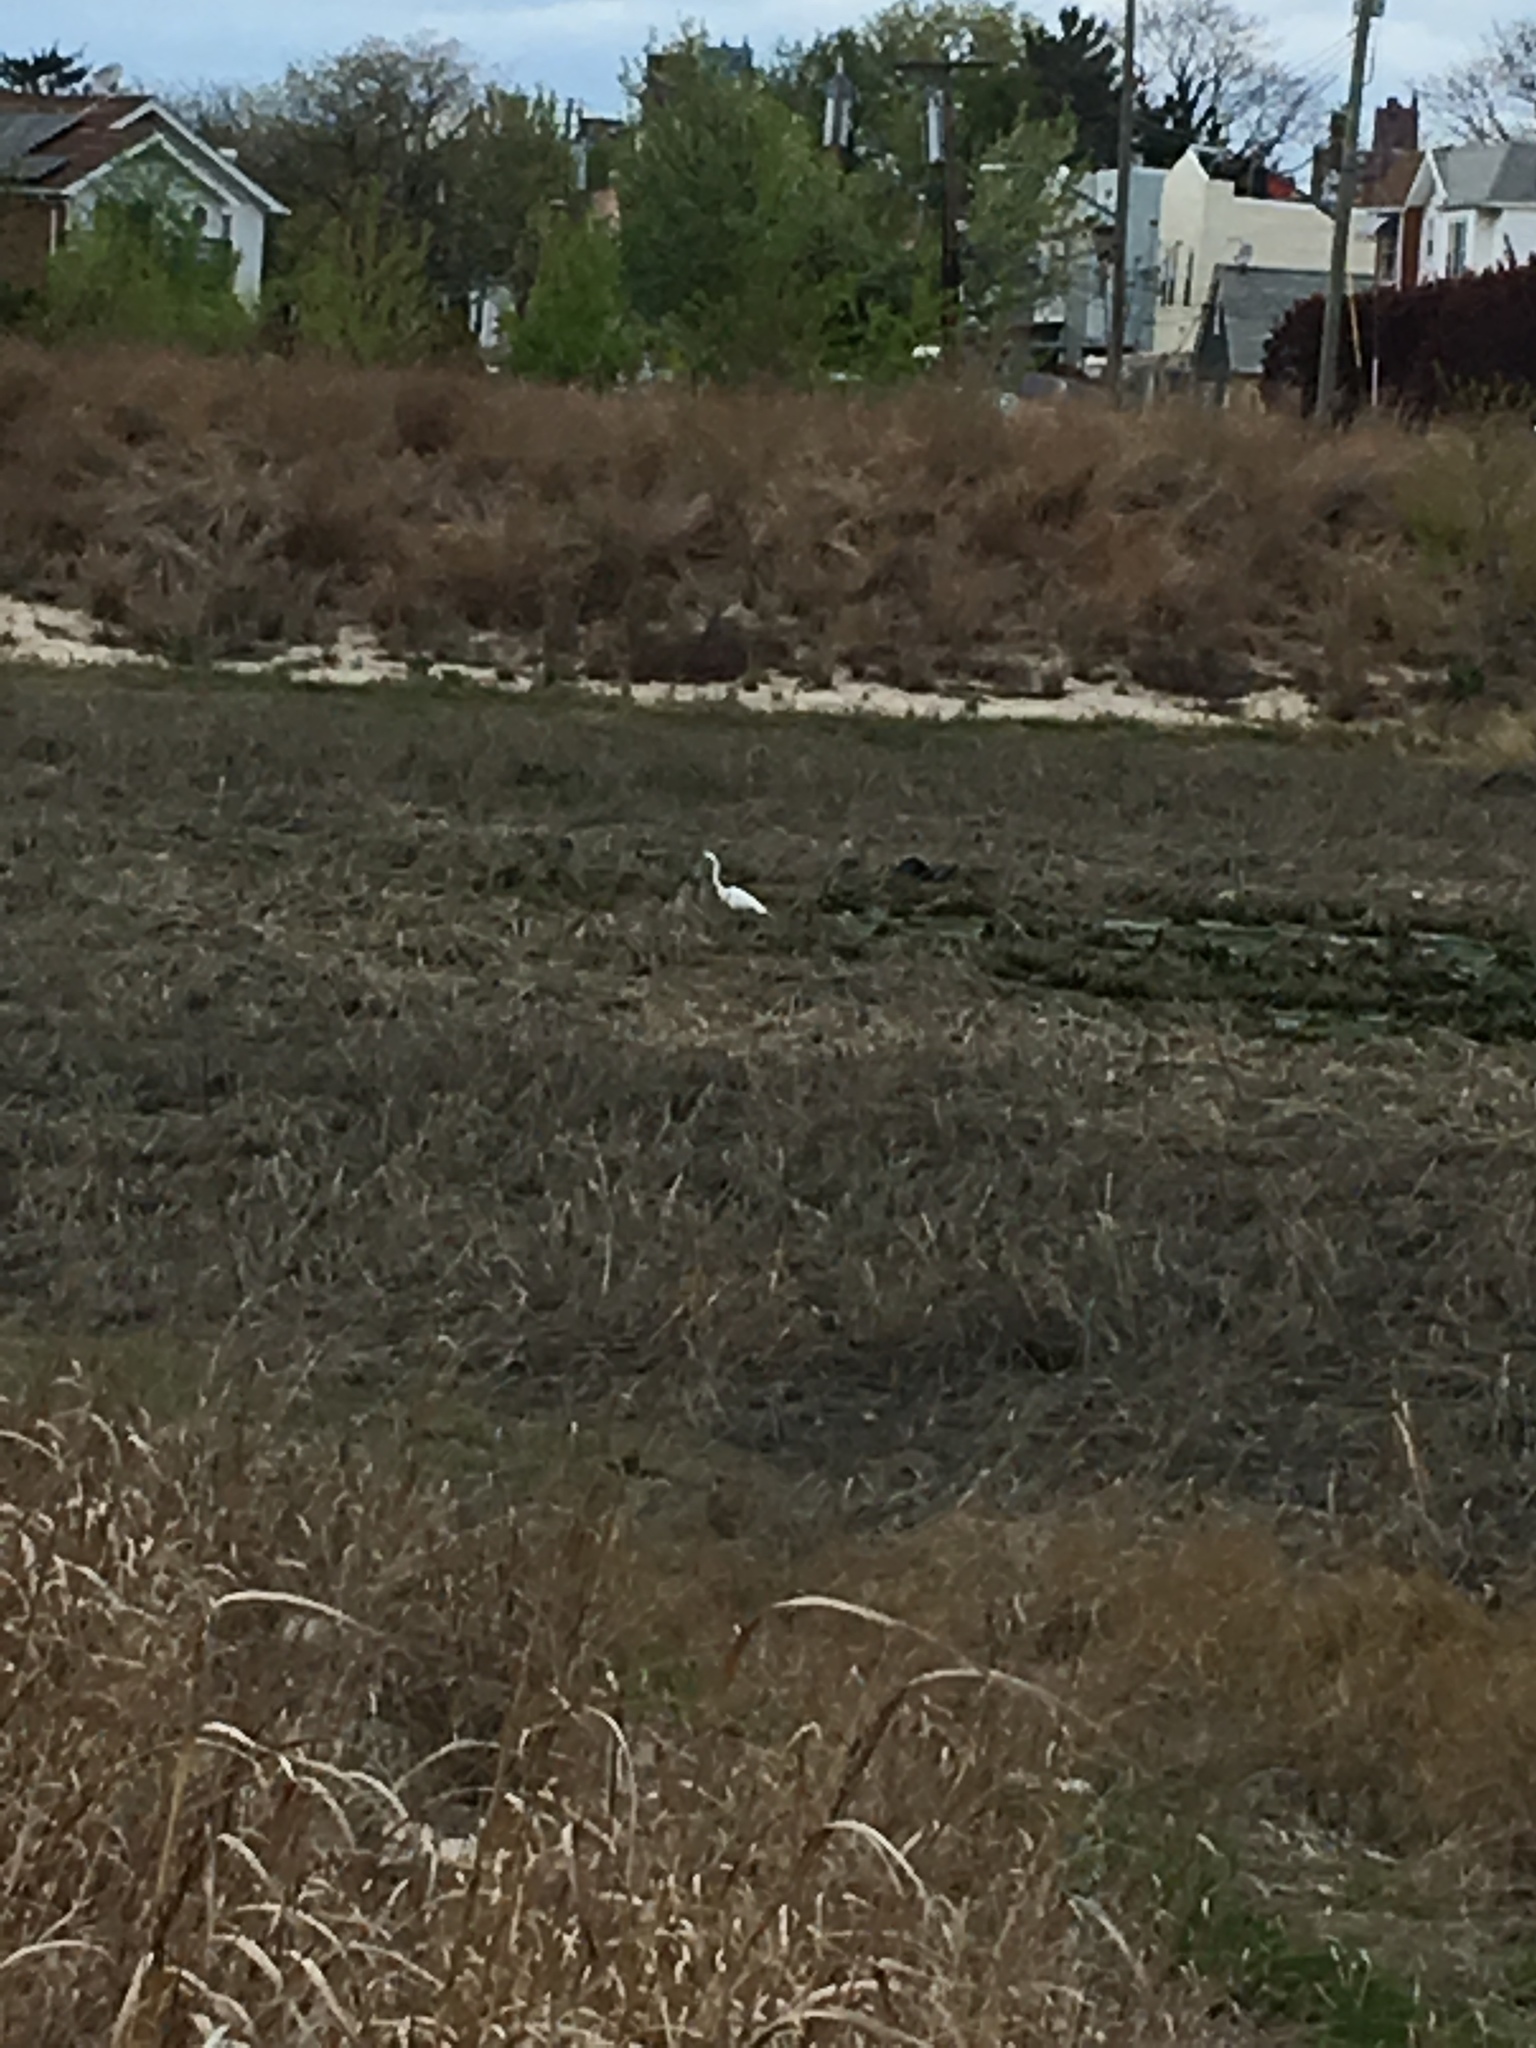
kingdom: Animalia
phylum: Chordata
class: Aves
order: Pelecaniformes
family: Ardeidae
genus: Ardea
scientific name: Ardea alba
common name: Great egret
